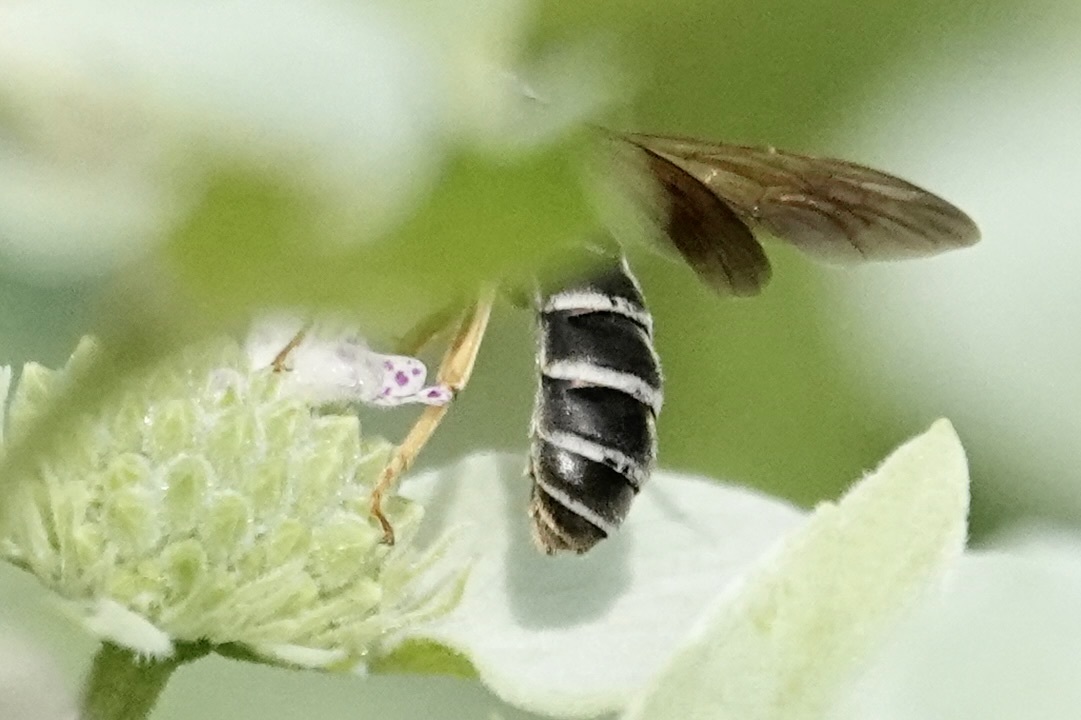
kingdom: Animalia
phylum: Arthropoda
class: Insecta
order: Hymenoptera
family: Halictidae
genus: Halictus
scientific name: Halictus parallelus
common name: Parallel-striped sweat bee
